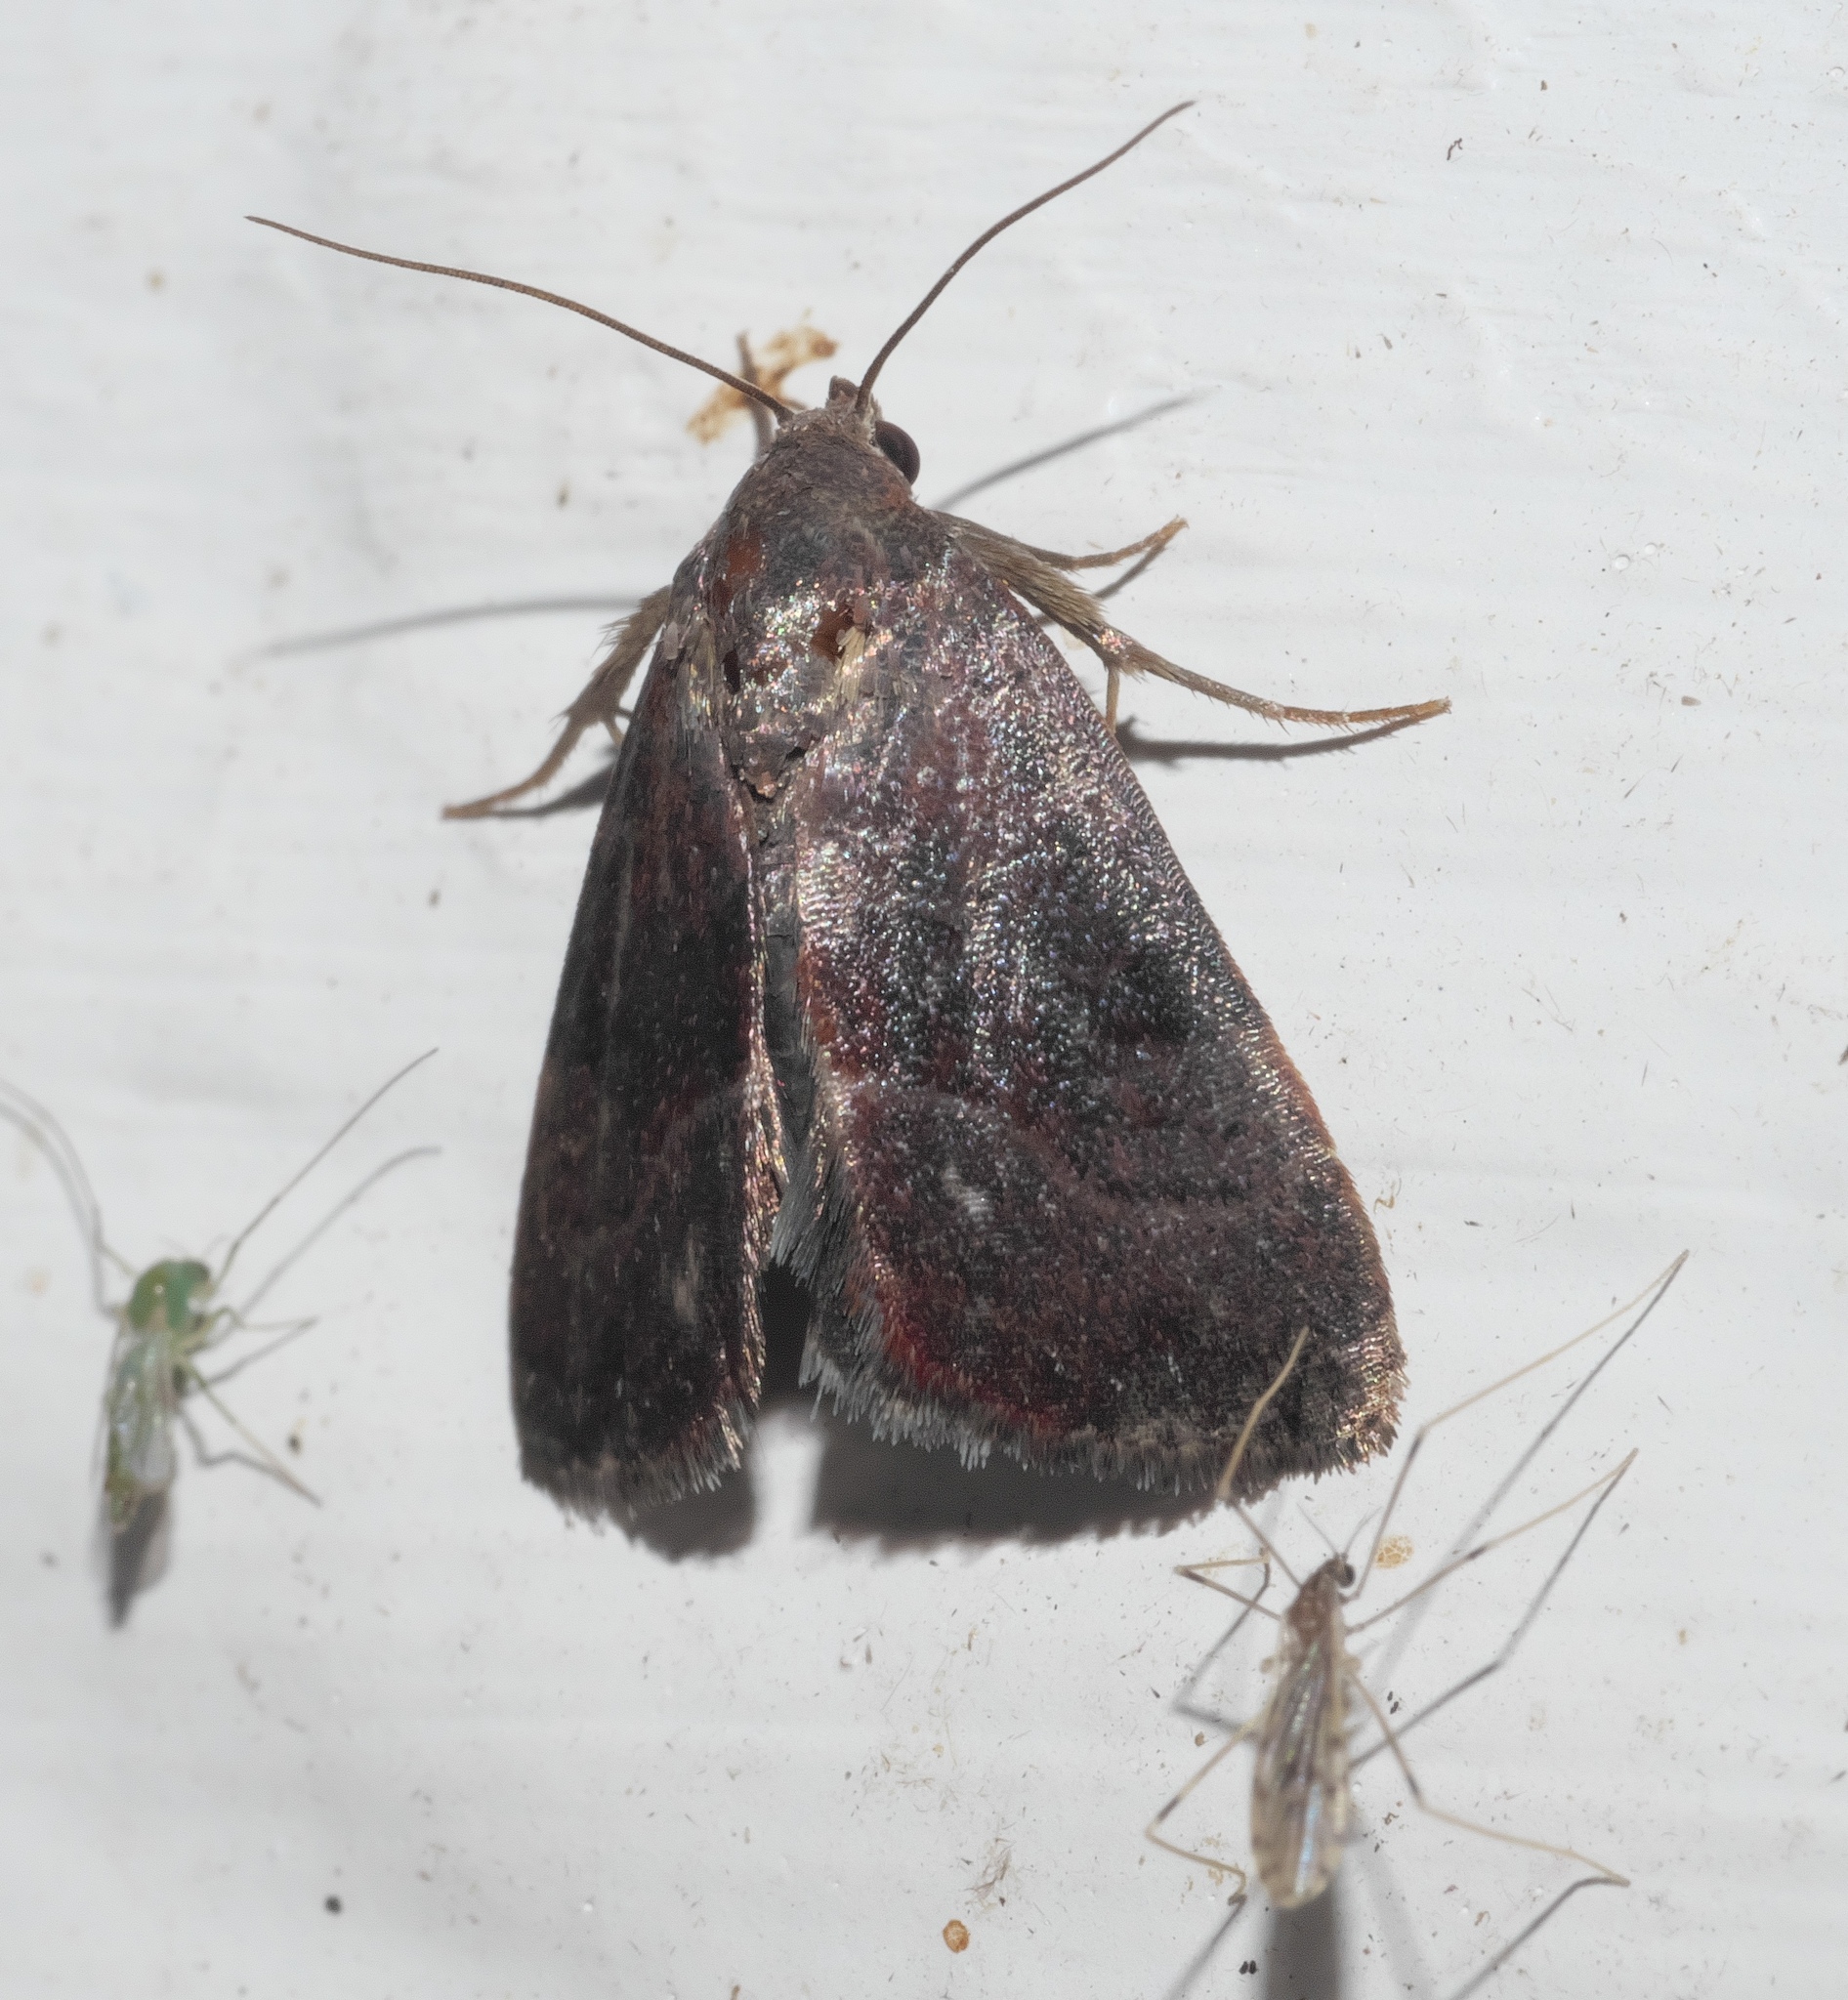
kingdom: Animalia
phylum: Arthropoda
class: Insecta
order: Lepidoptera
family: Noctuidae
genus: Galgula
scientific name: Galgula partita
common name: Wedgeling
